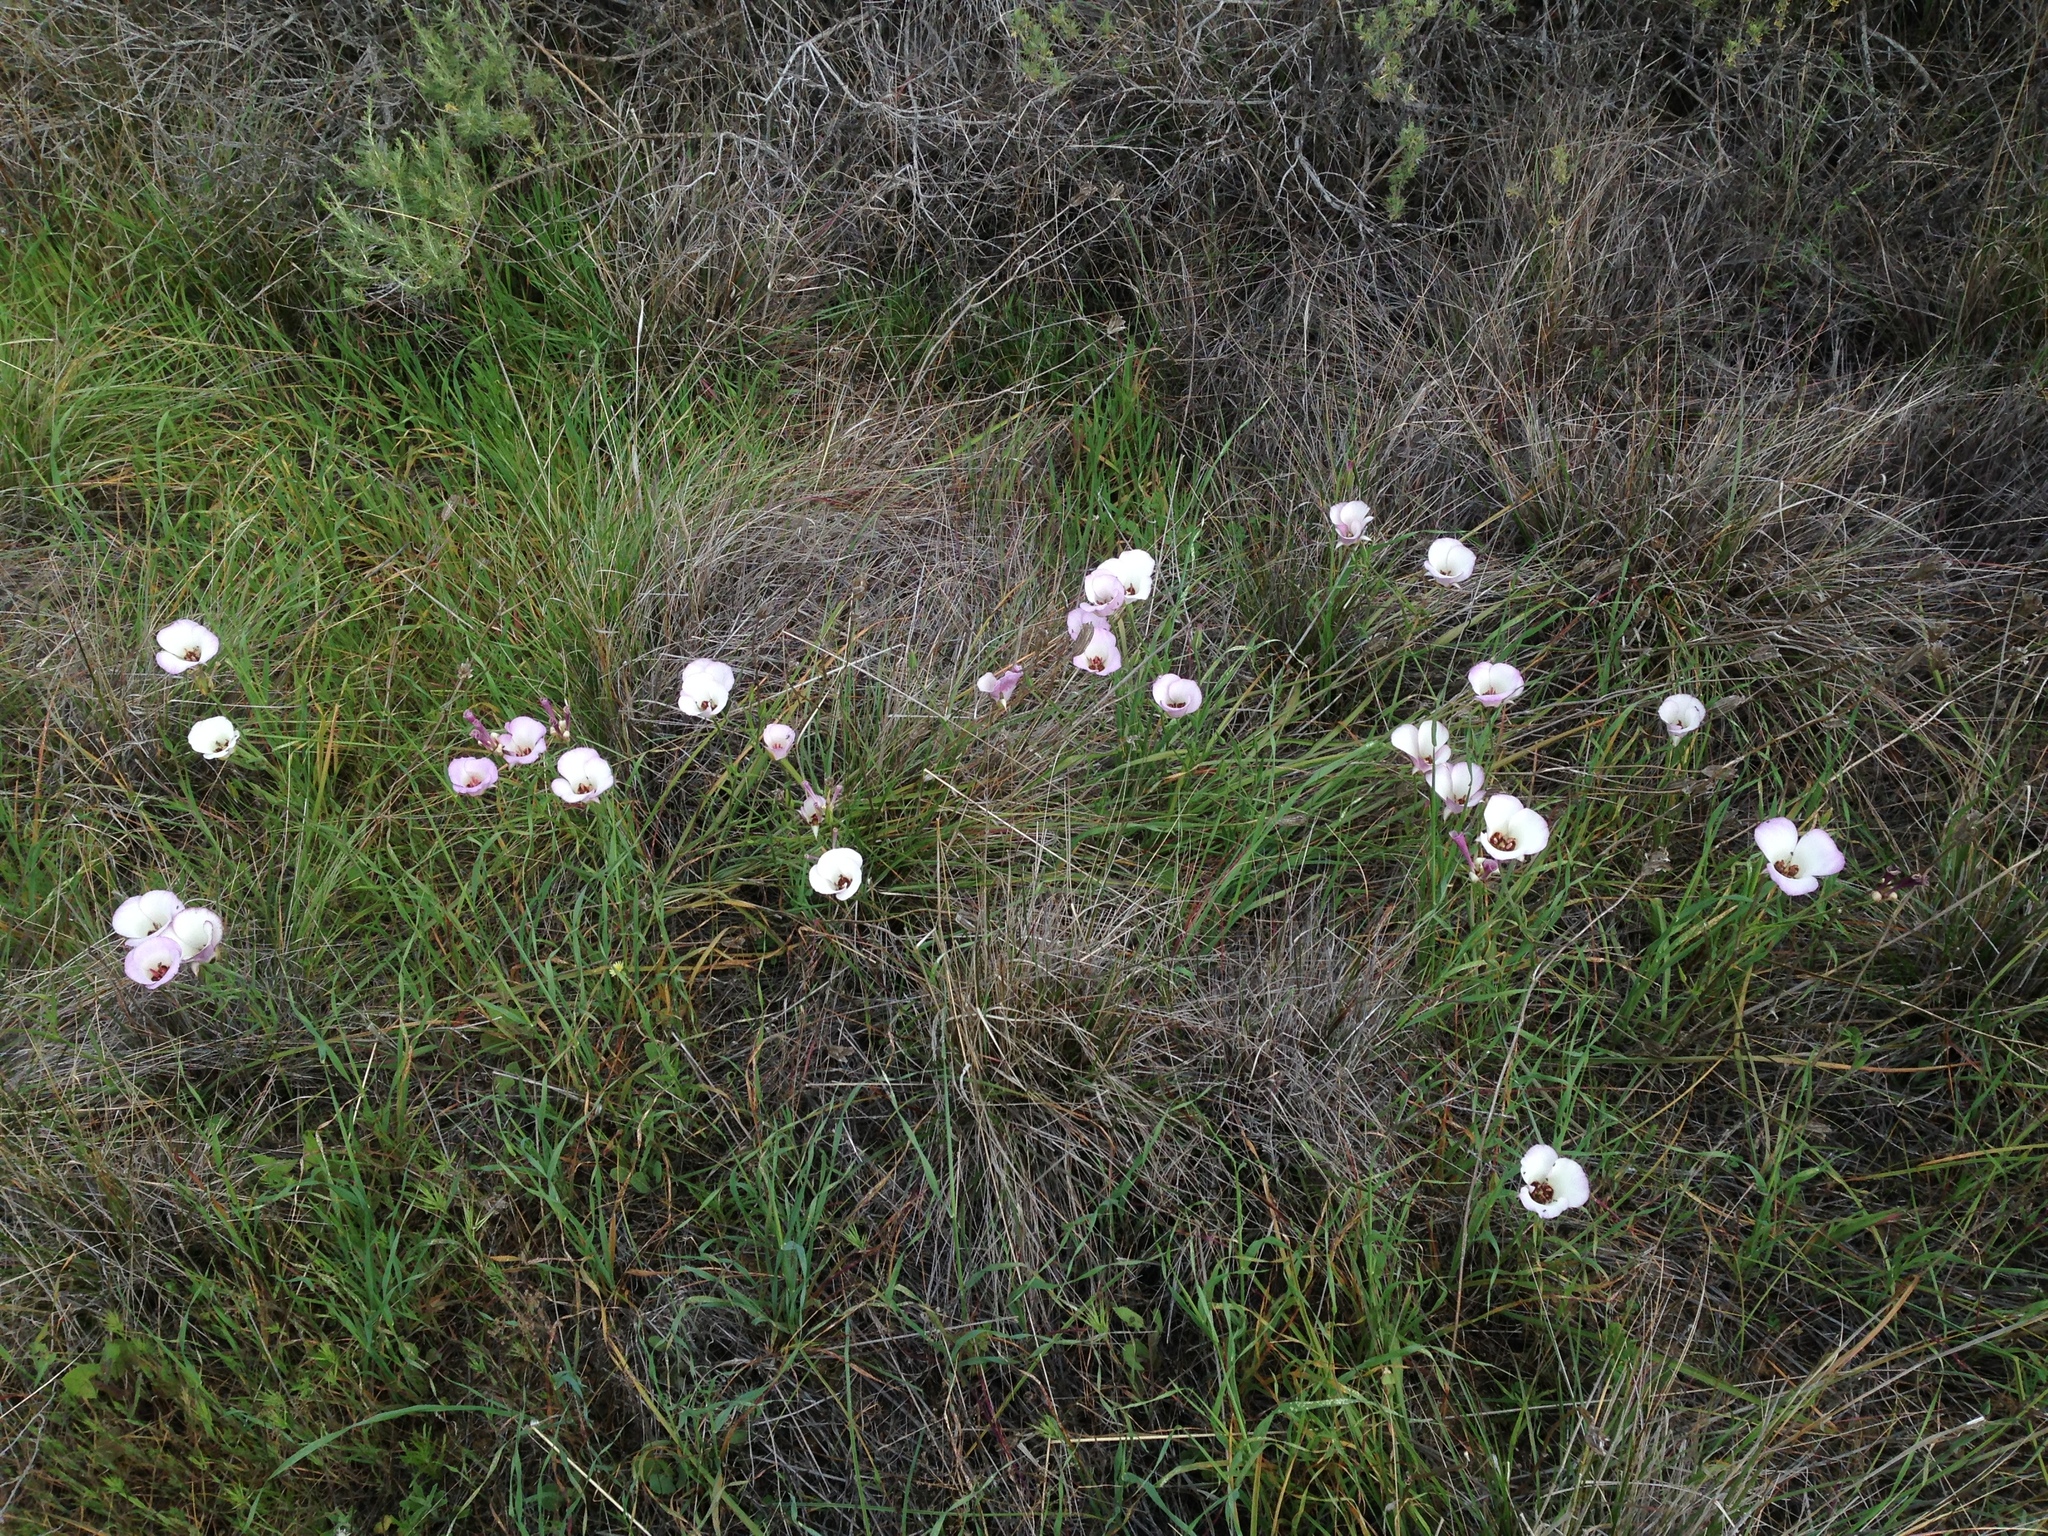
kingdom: Plantae
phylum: Tracheophyta
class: Liliopsida
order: Liliales
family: Liliaceae
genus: Calochortus
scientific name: Calochortus catalinae
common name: Catalina mariposa-lily
